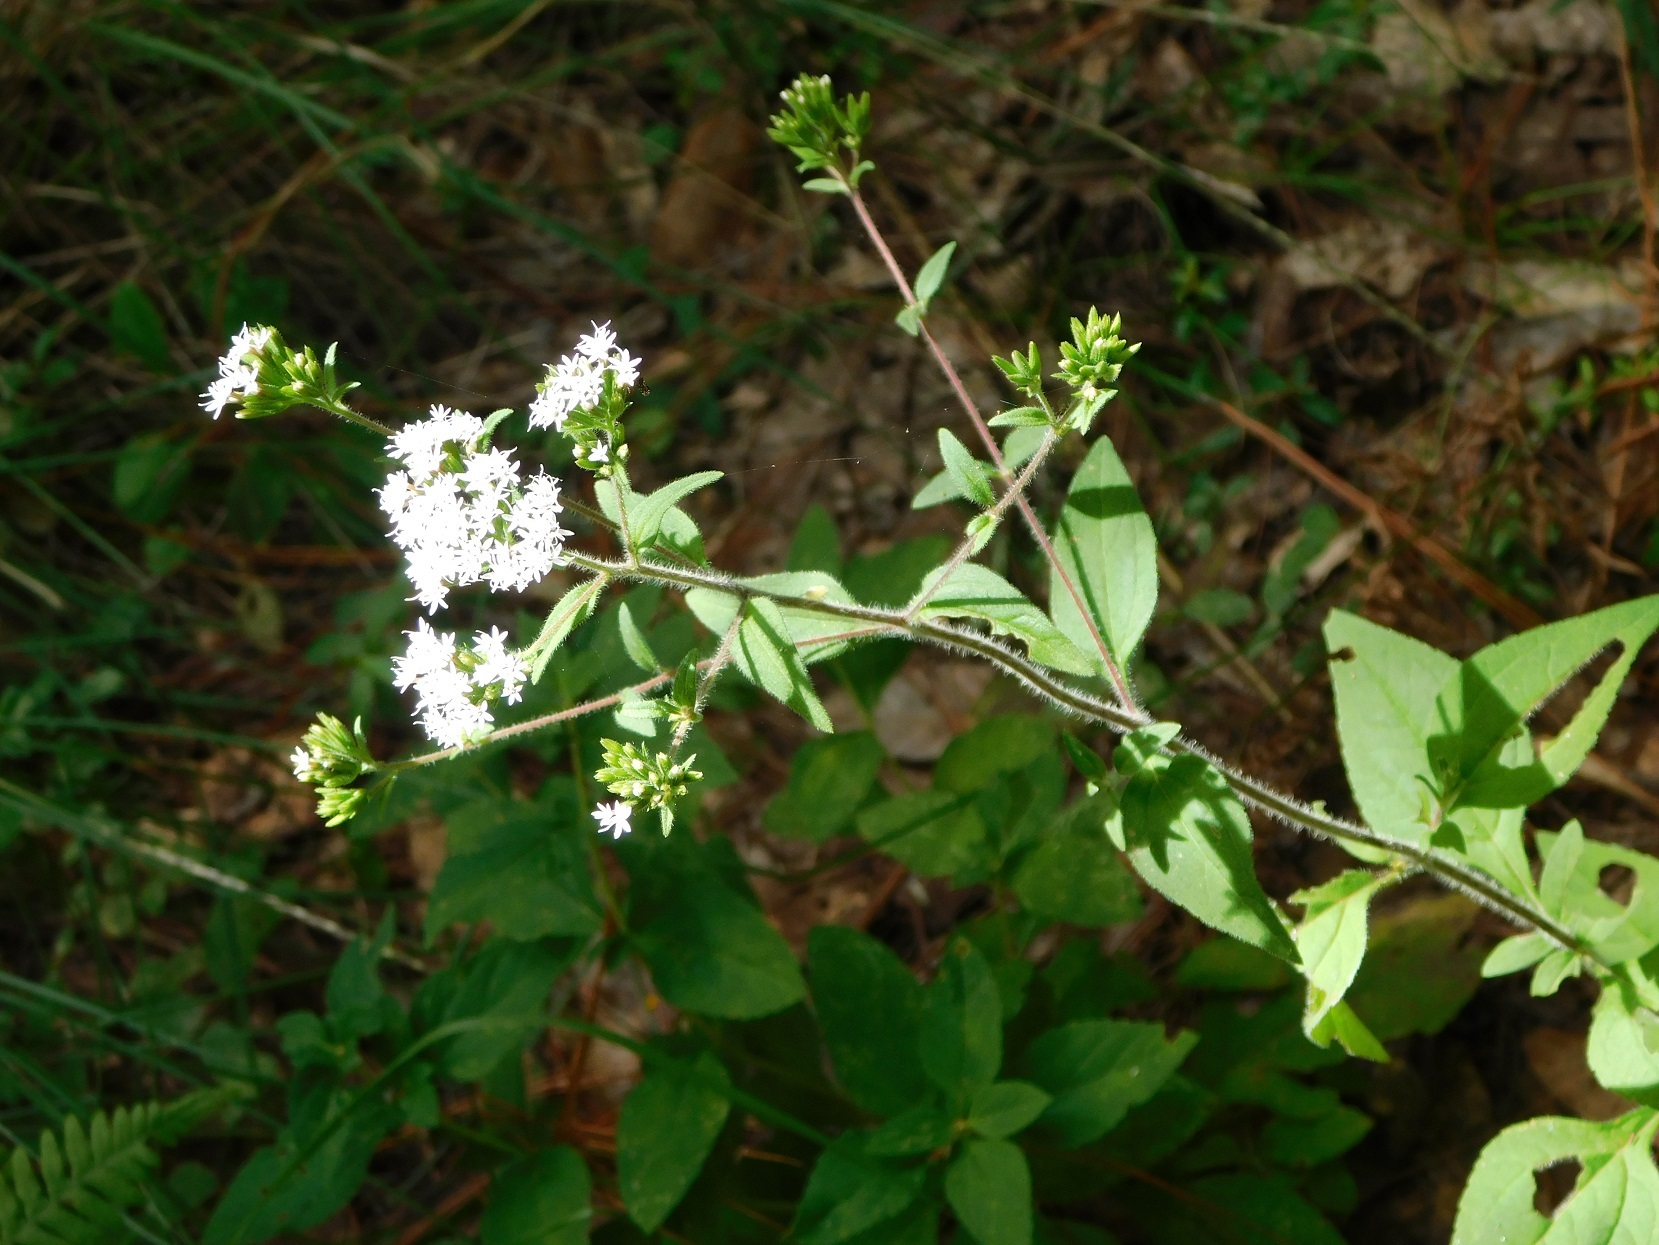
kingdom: Plantae
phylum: Tracheophyta
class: Magnoliopsida
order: Asterales
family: Asteraceae
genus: Stevia
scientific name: Stevia tomentosa
